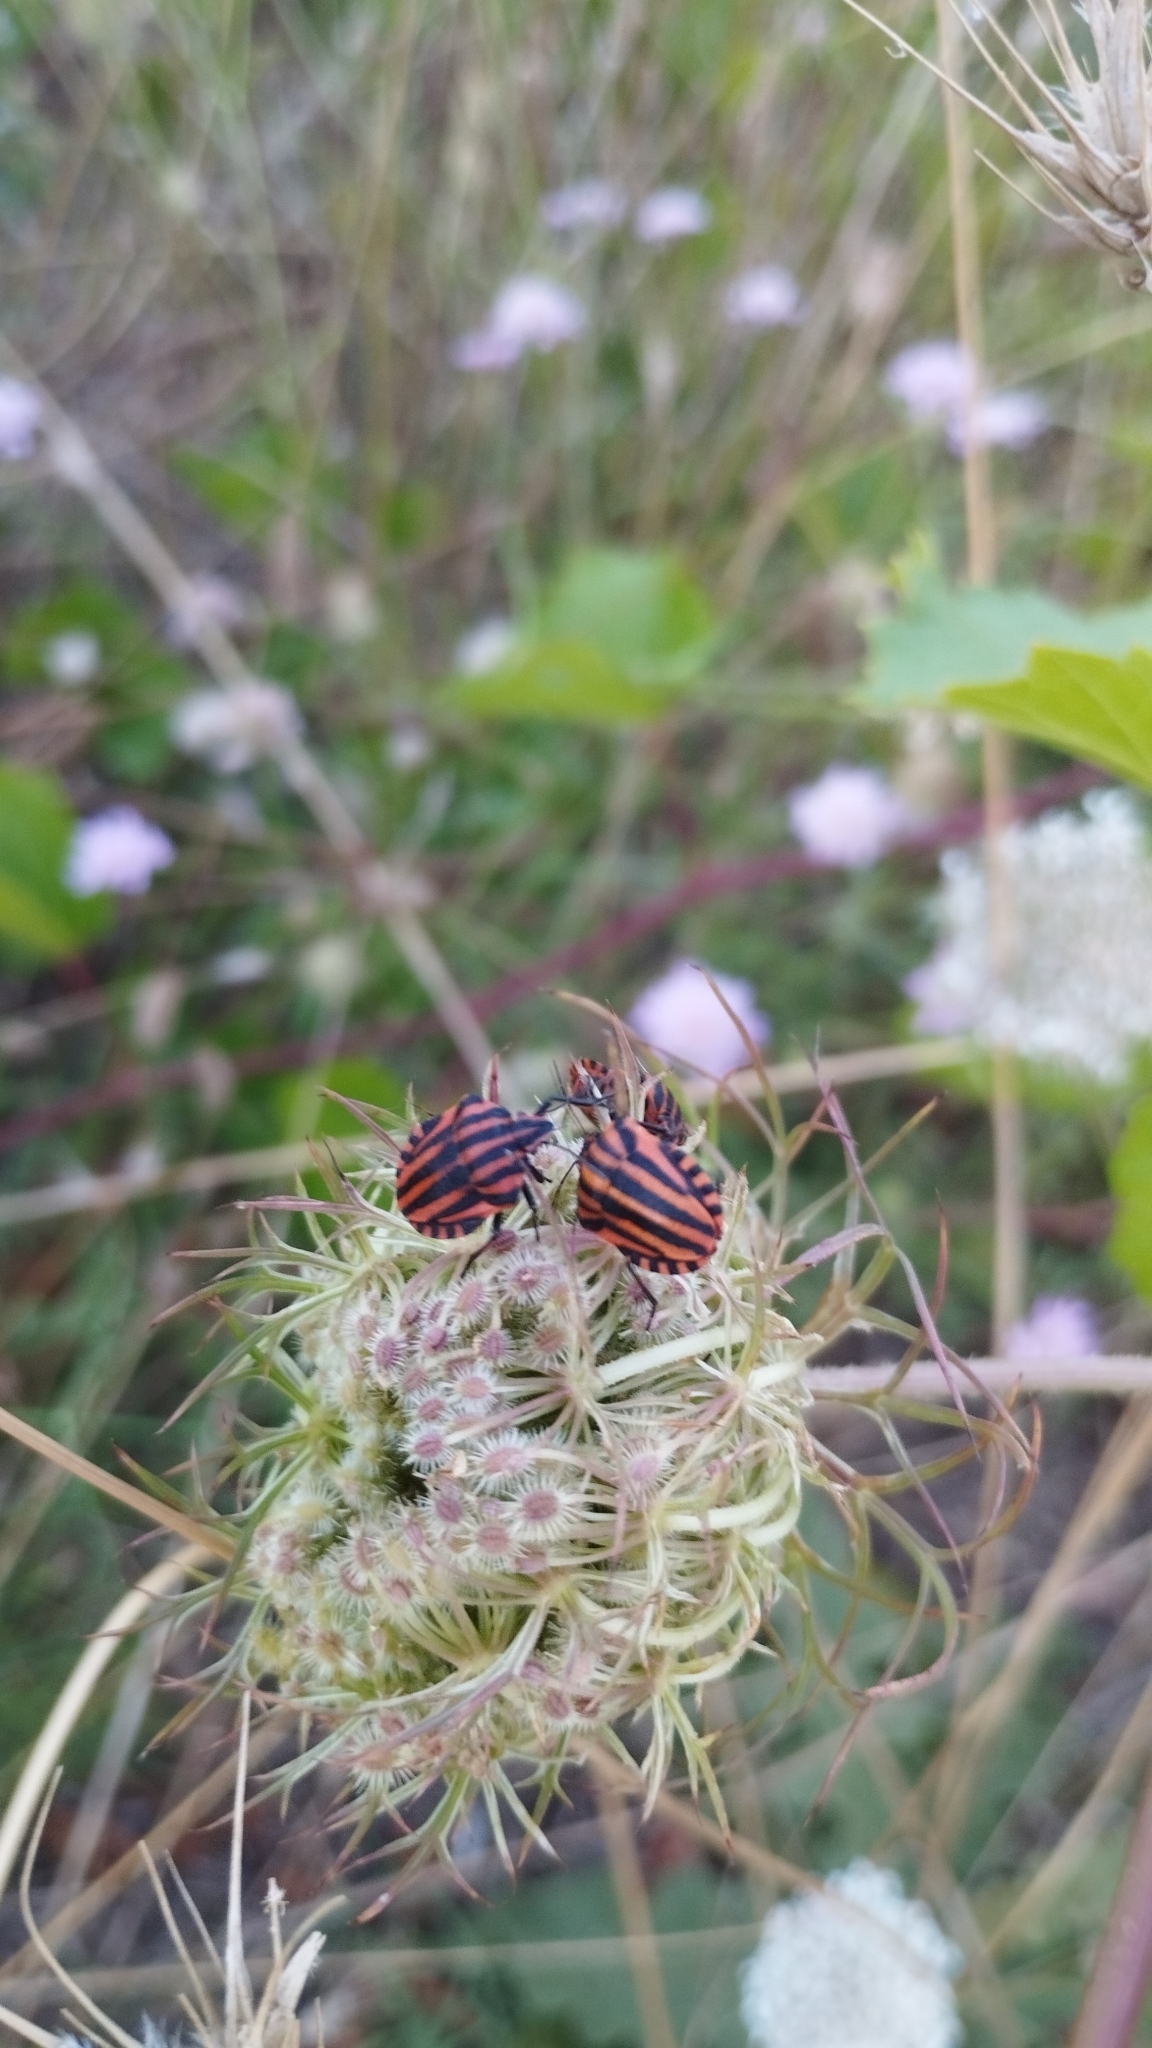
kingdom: Animalia
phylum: Arthropoda
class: Insecta
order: Hemiptera
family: Pentatomidae
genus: Graphosoma
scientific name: Graphosoma italicum
